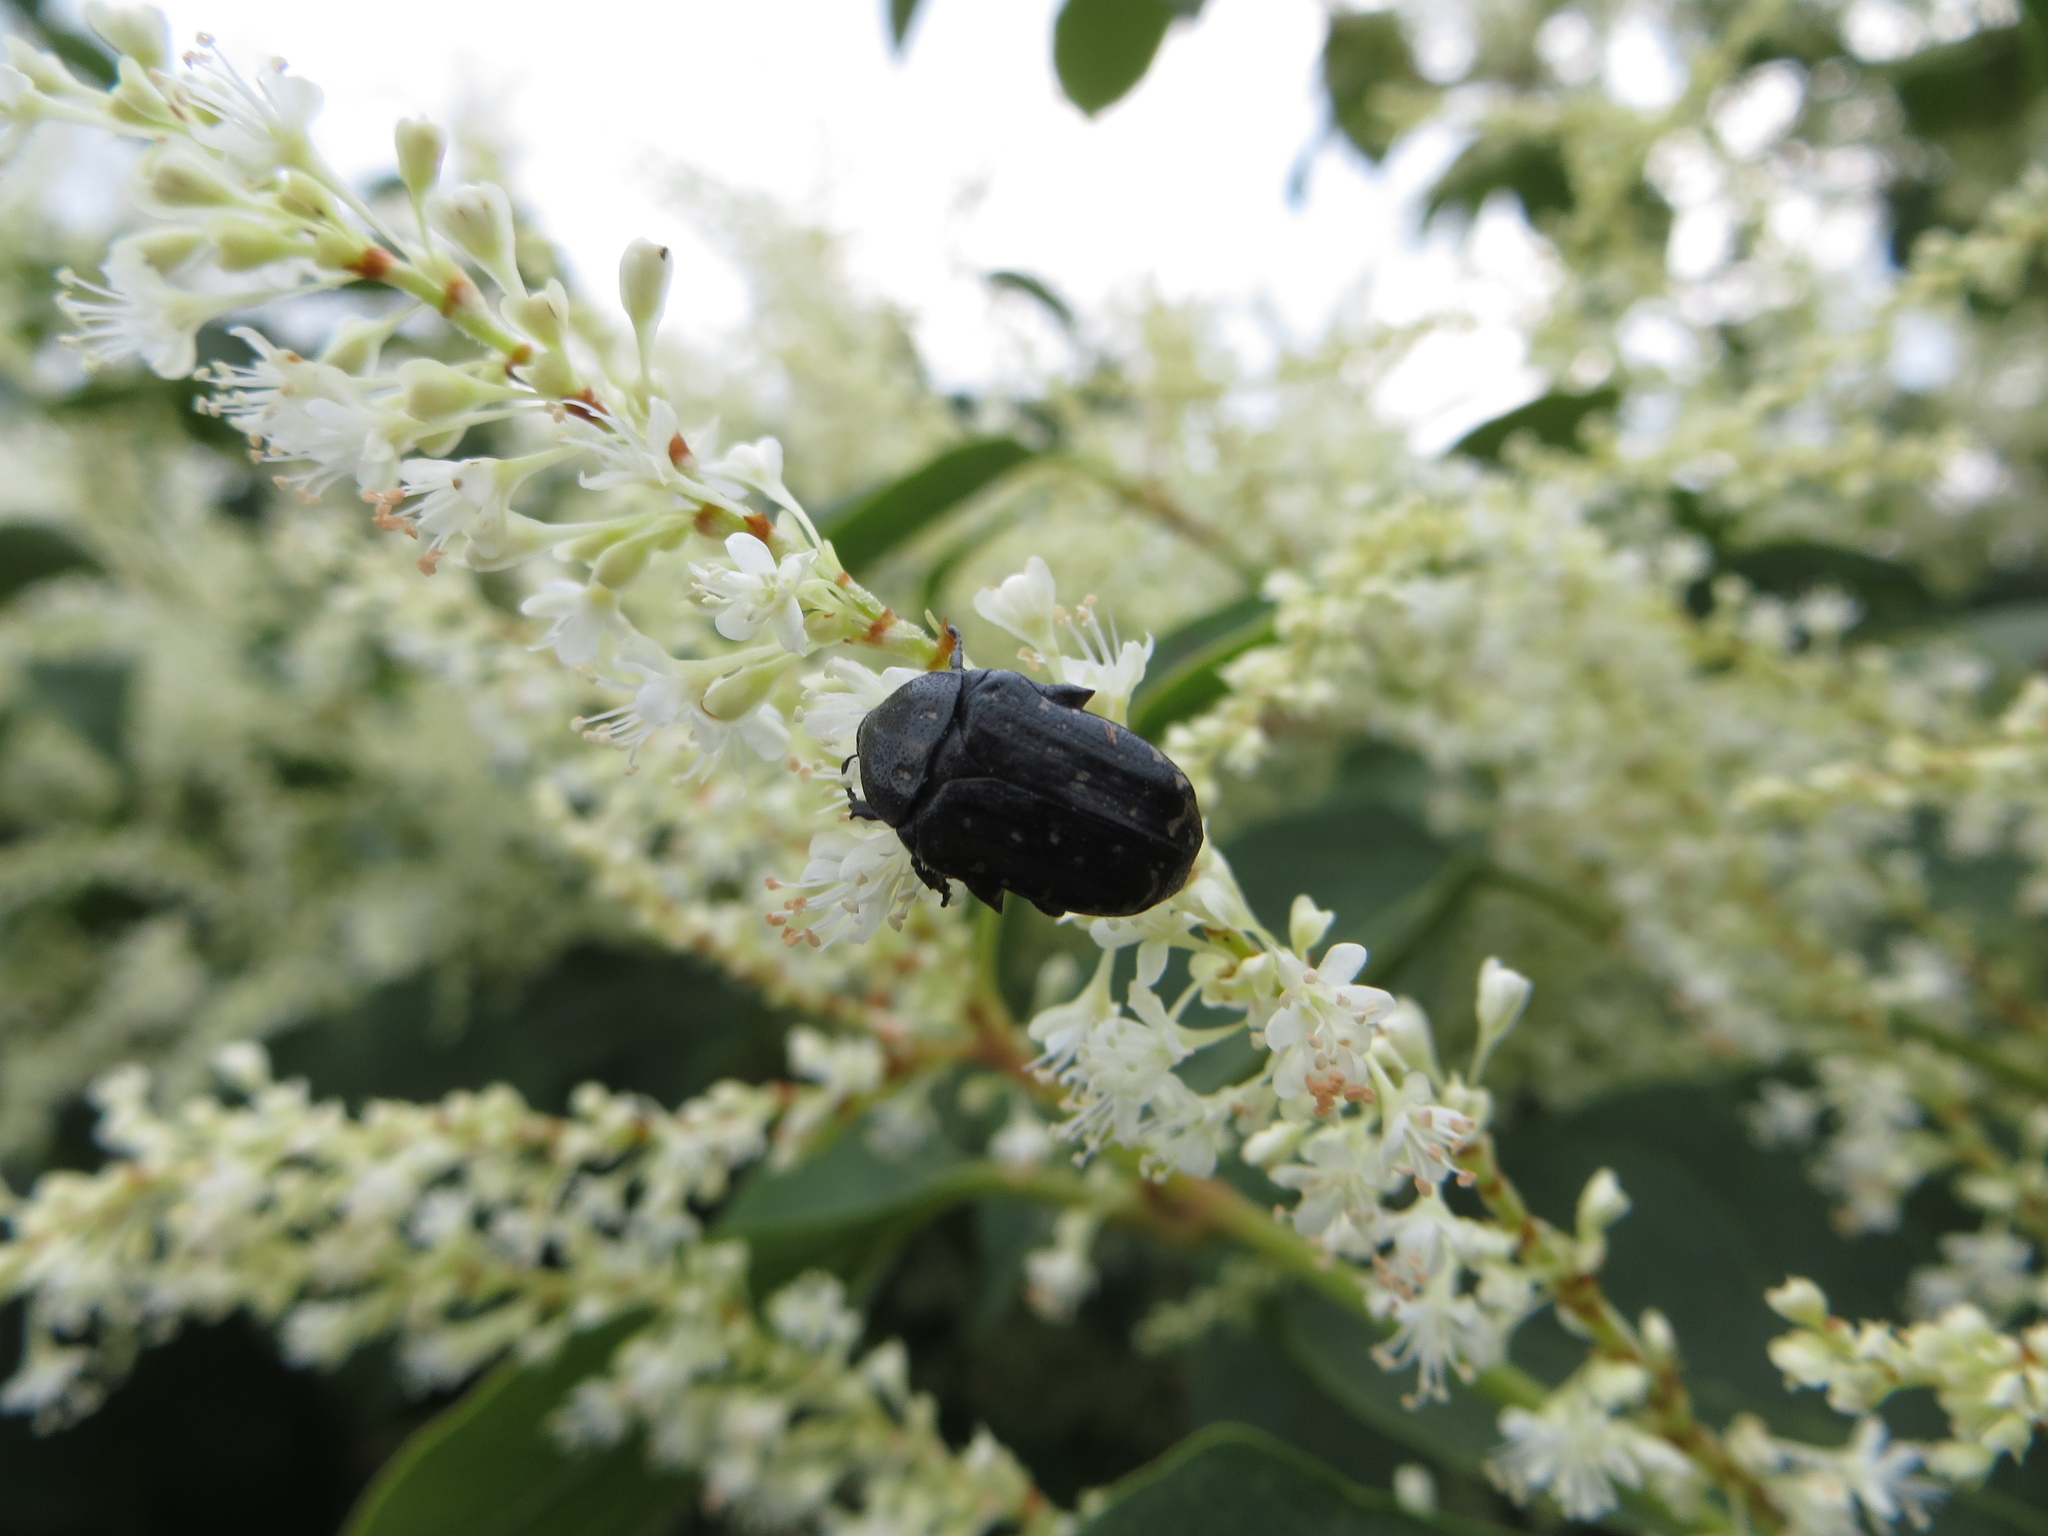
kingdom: Animalia
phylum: Arthropoda
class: Insecta
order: Coleoptera
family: Scarabaeidae
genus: Oxythyrea
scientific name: Oxythyrea funesta
